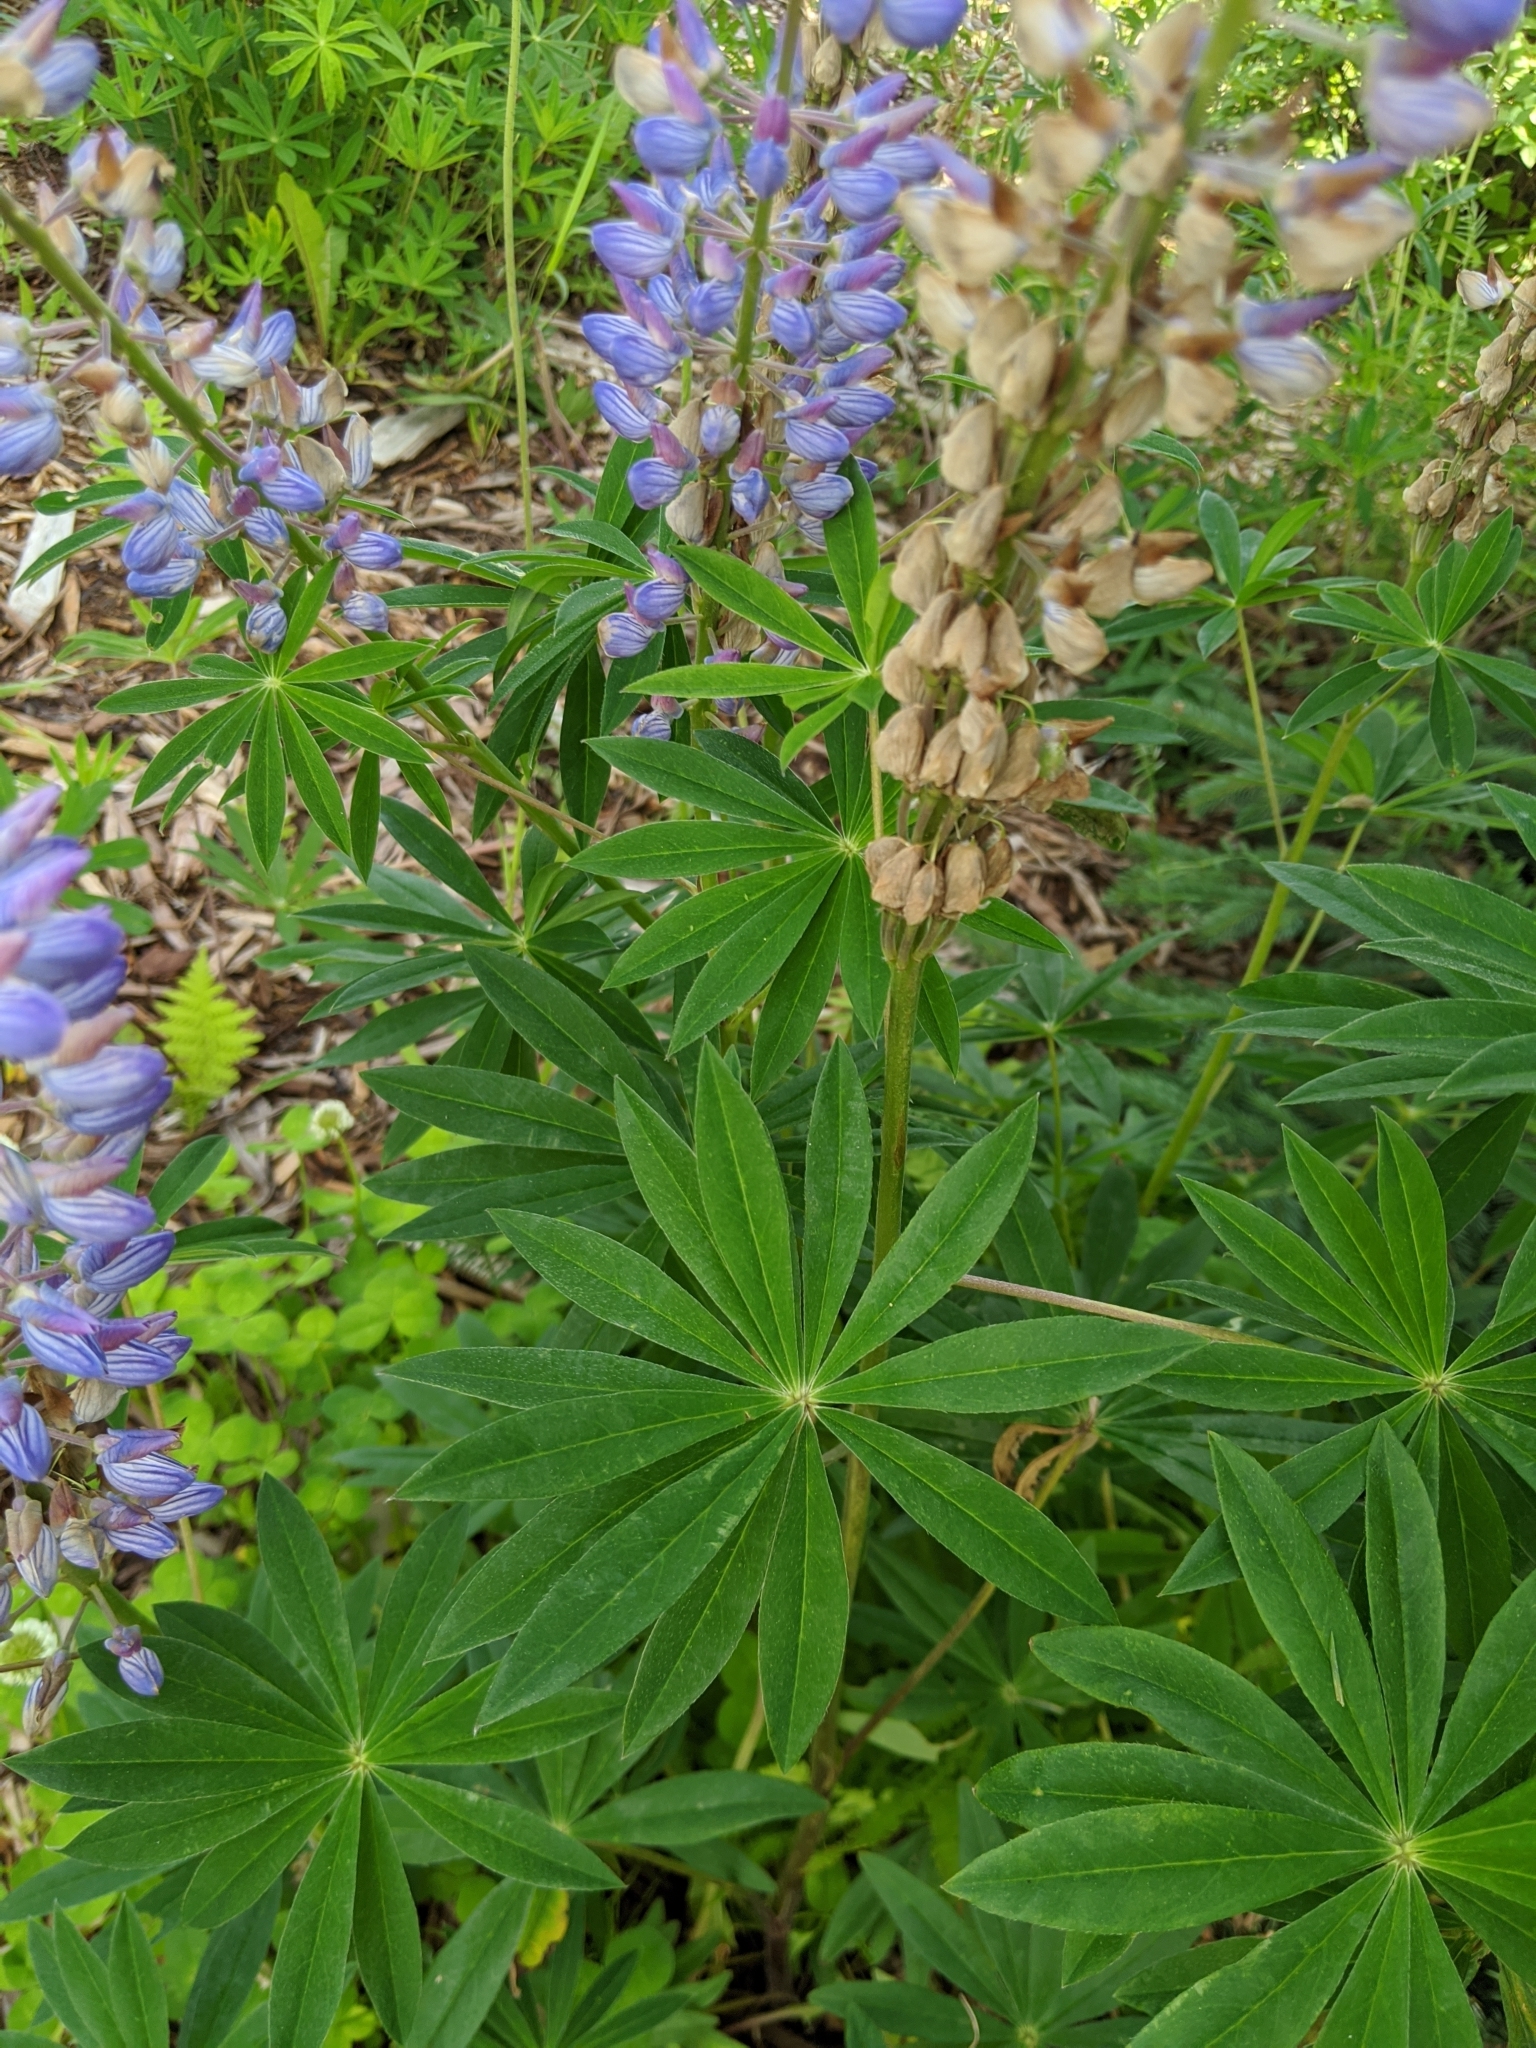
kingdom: Plantae
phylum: Tracheophyta
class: Magnoliopsida
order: Fabales
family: Fabaceae
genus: Lupinus
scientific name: Lupinus polyphyllus
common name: Garden lupin
